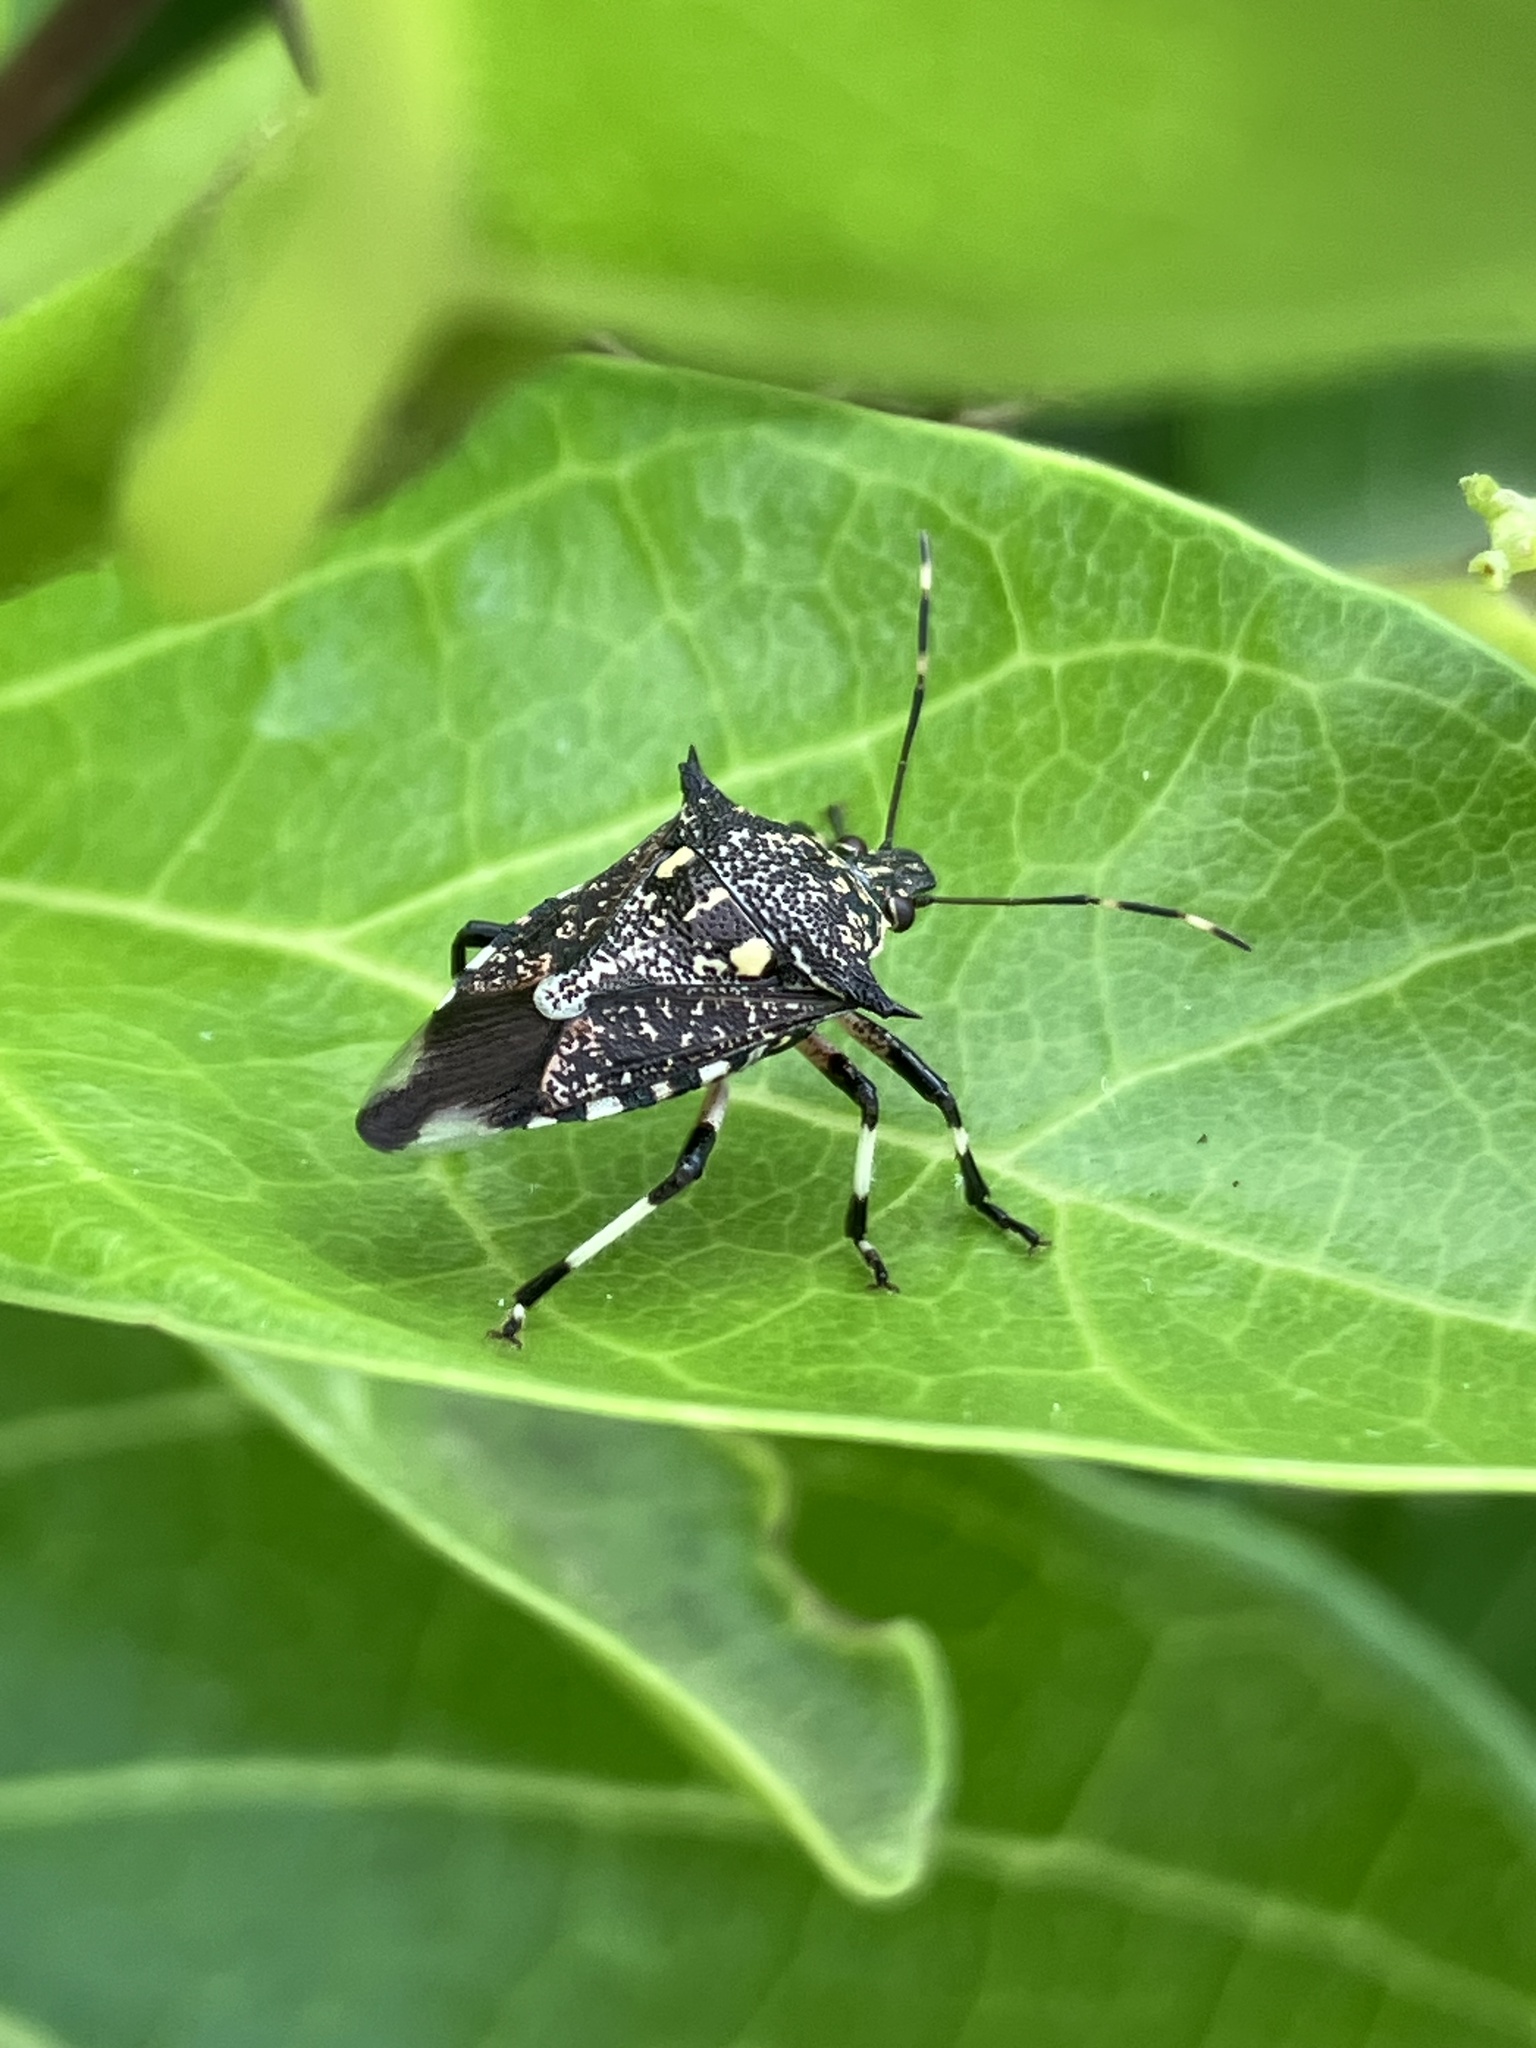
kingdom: Animalia
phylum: Arthropoda
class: Insecta
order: Hemiptera
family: Pentatomidae
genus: Eocanthecoma
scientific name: Eocanthecoma furcellata
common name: Stink bug
